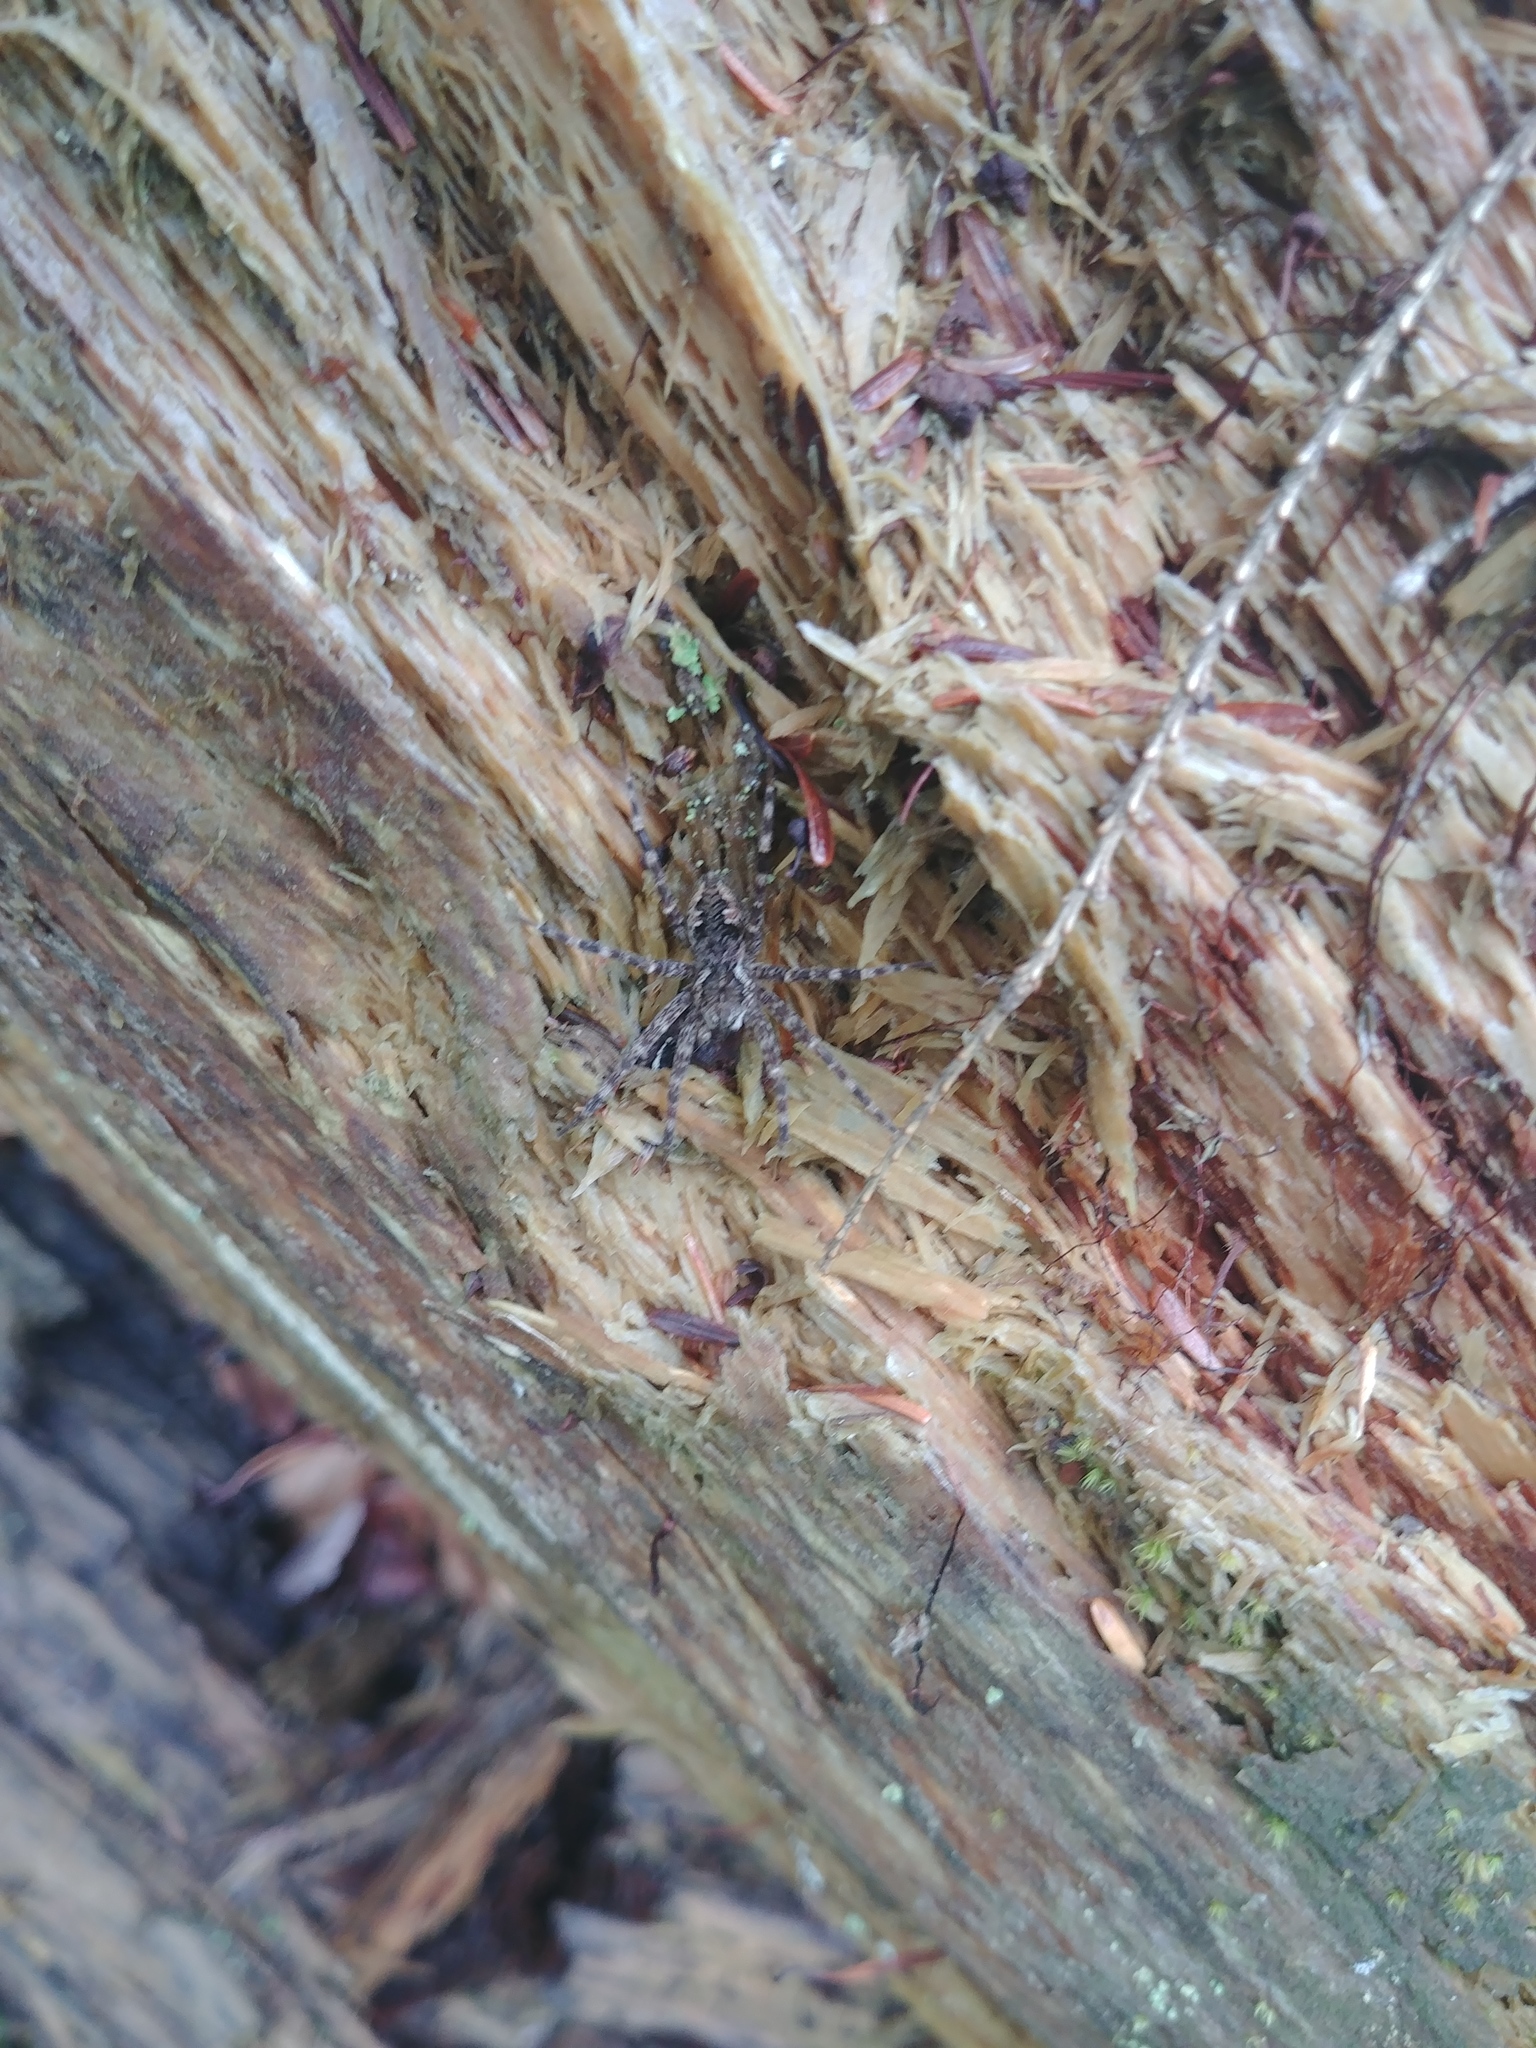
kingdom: Animalia
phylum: Arthropoda
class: Arachnida
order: Araneae
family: Pisauridae
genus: Dolomedes
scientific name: Dolomedes tenebrosus
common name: Dark fishing spider
